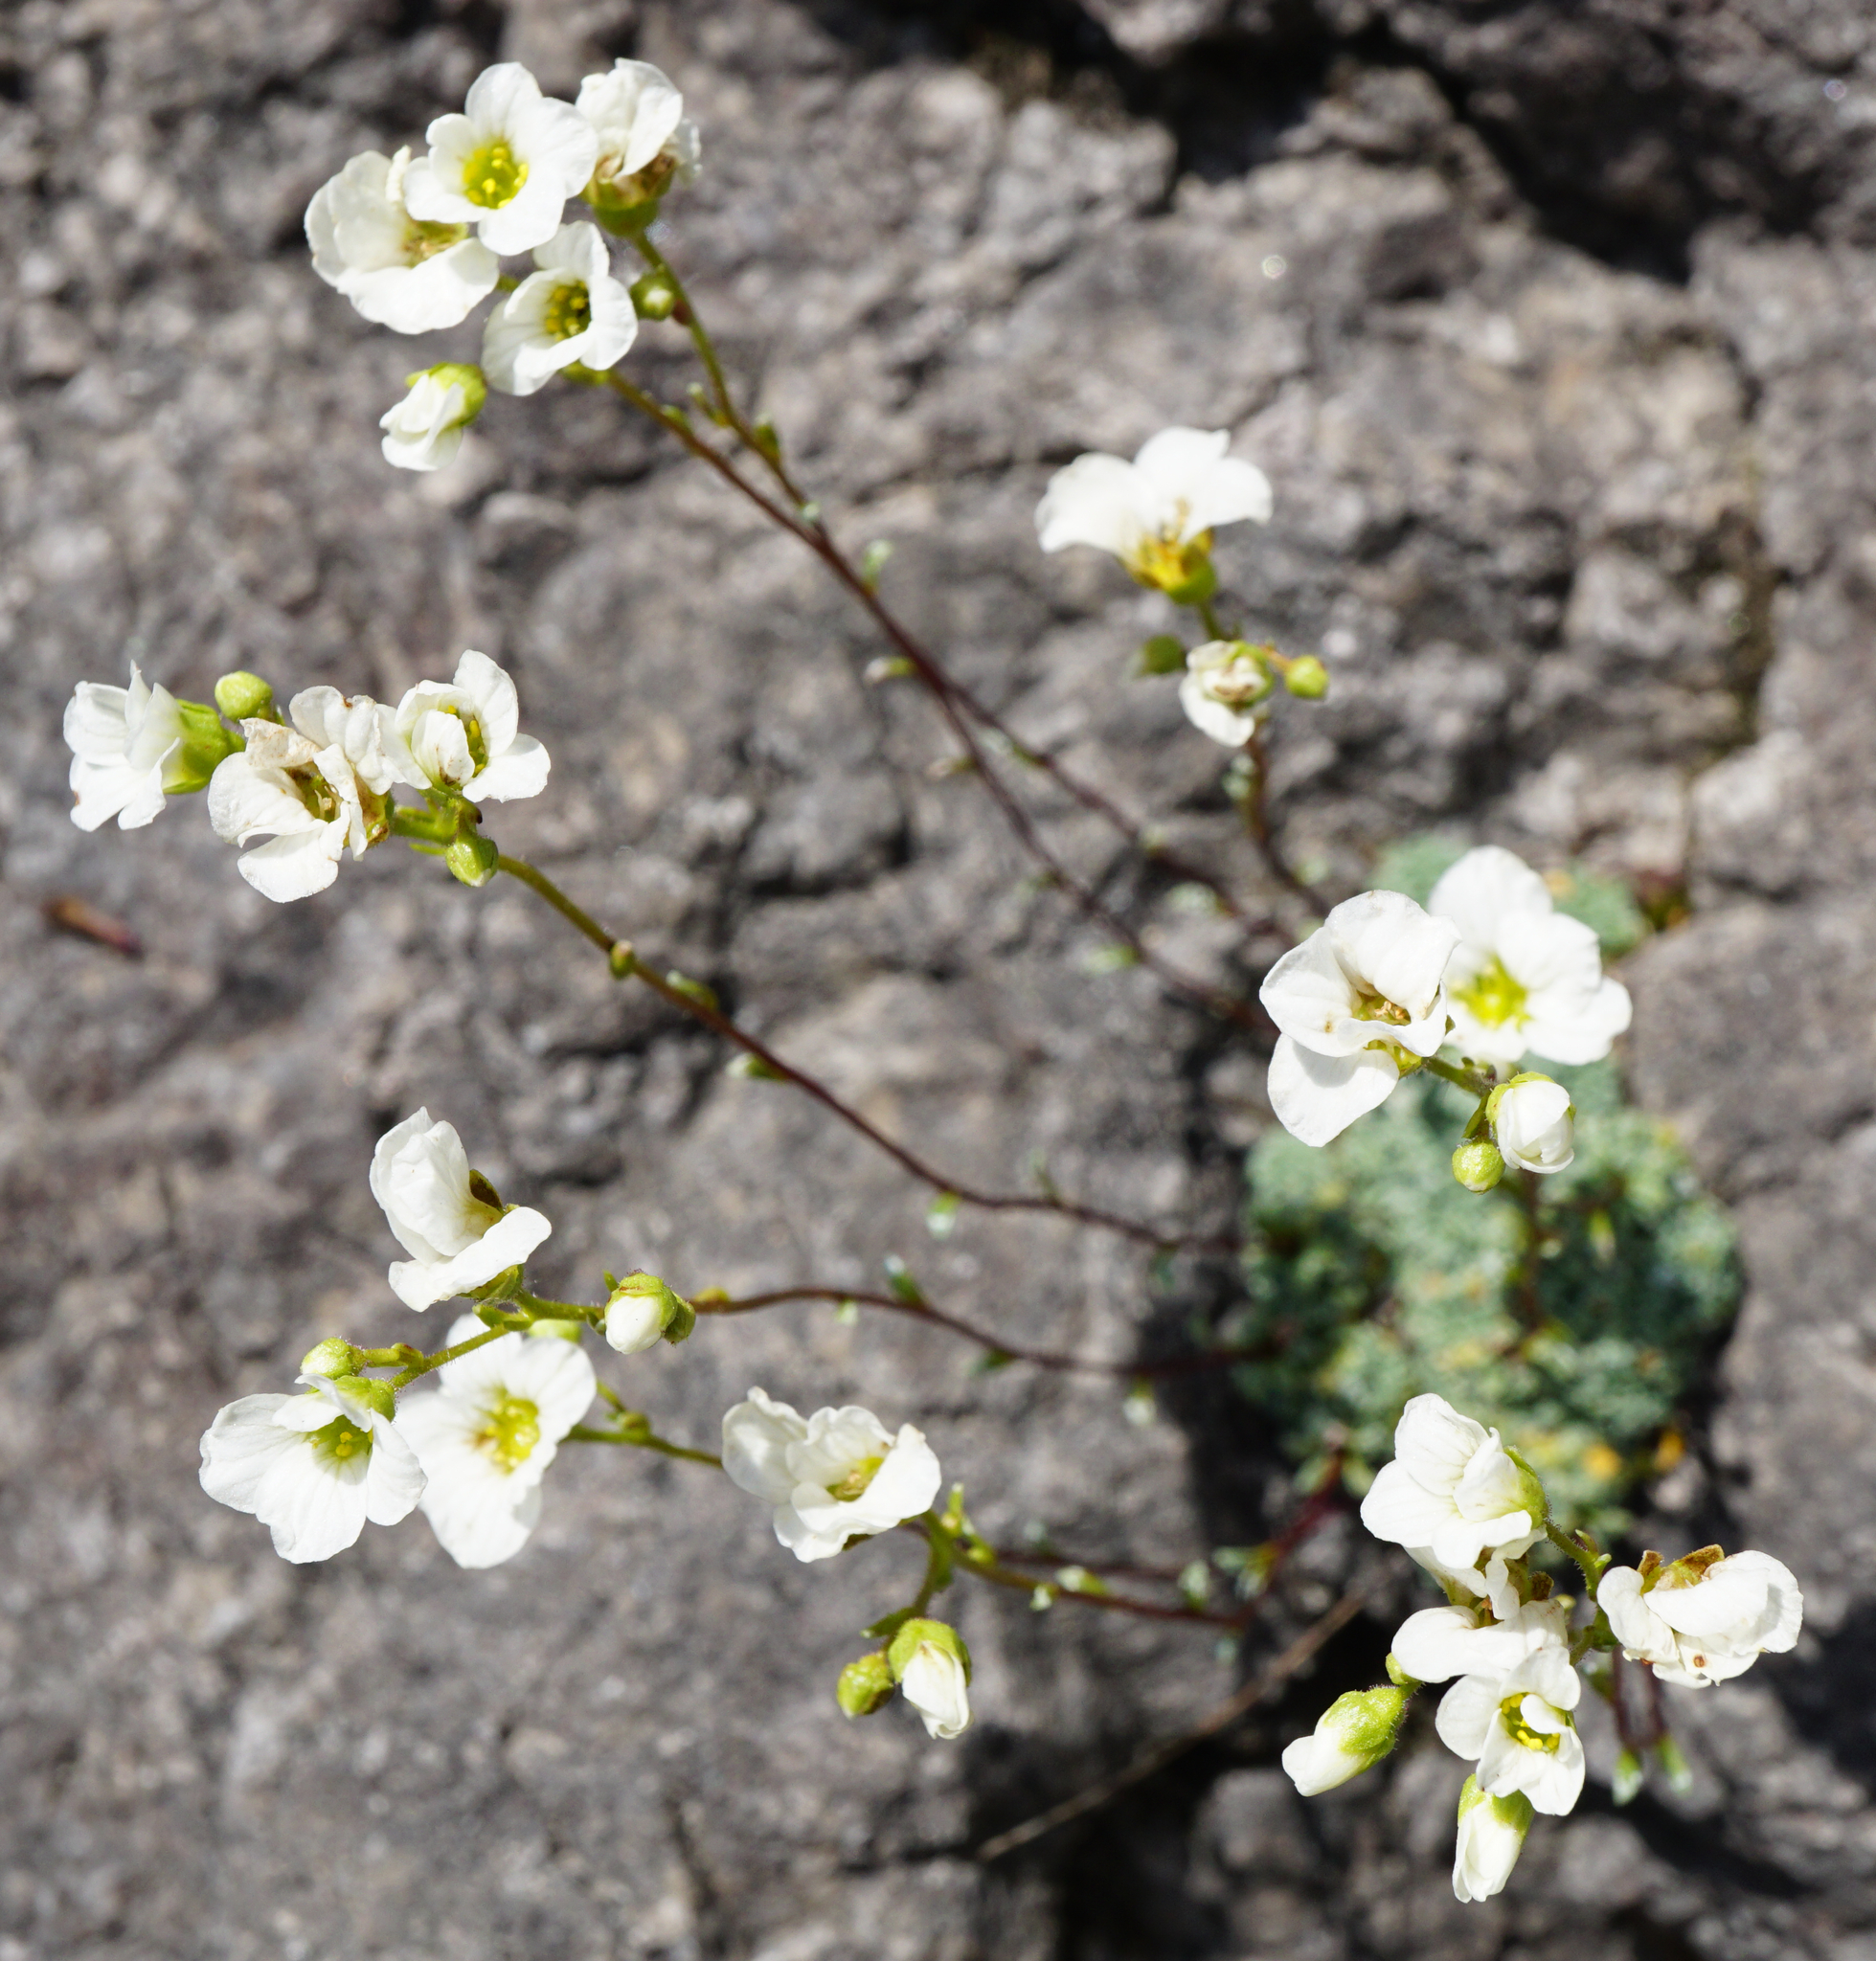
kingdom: Plantae
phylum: Tracheophyta
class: Magnoliopsida
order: Saxifragales
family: Saxifragaceae
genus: Saxifraga
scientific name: Saxifraga caesia
